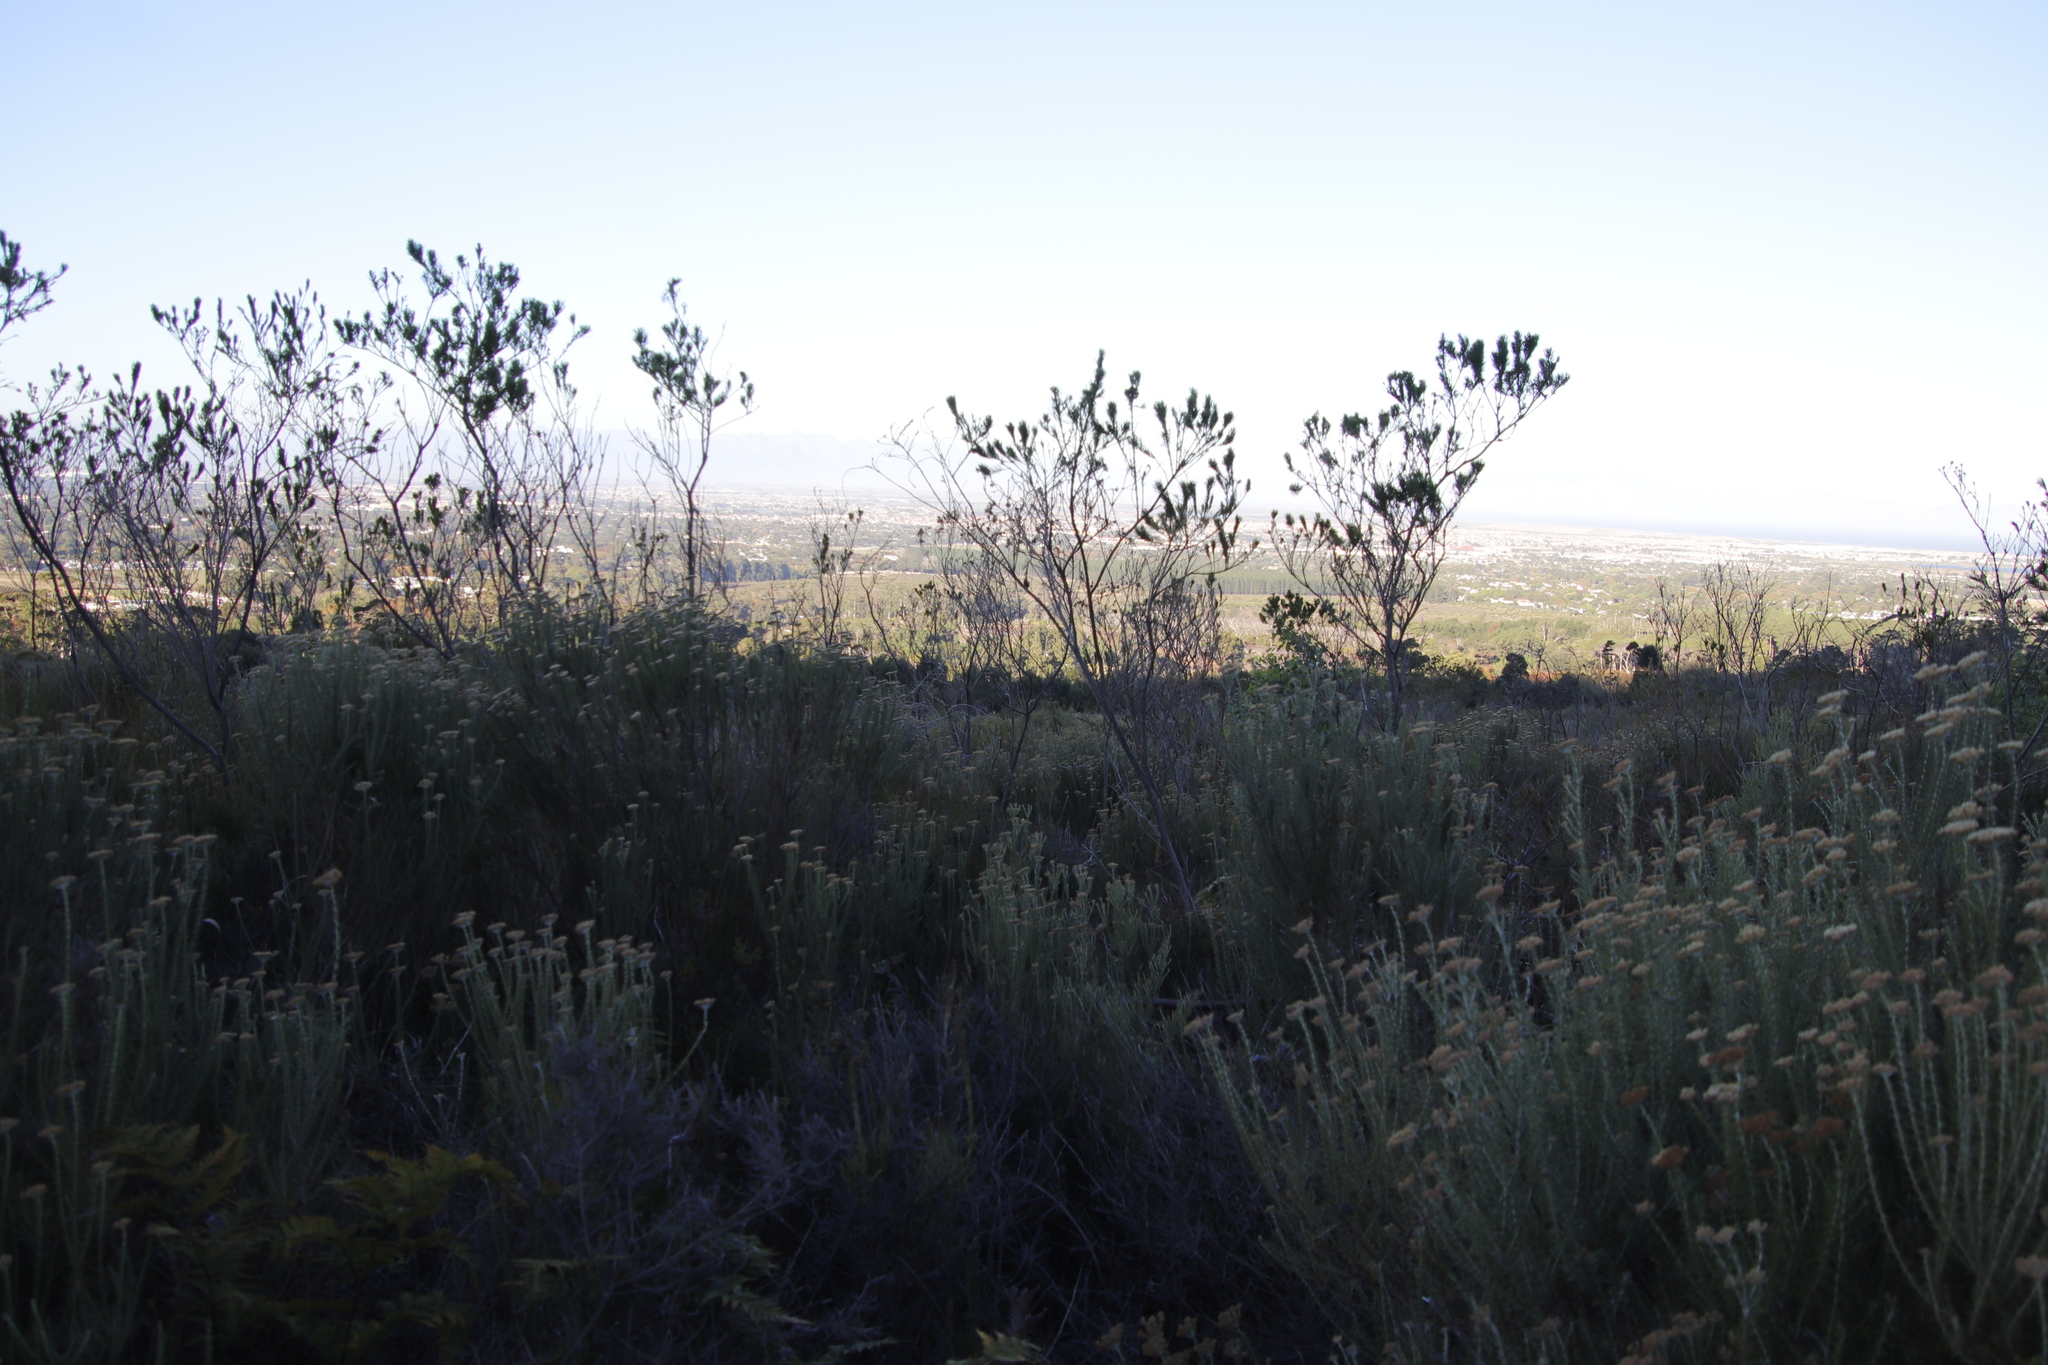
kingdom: Plantae
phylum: Tracheophyta
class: Magnoliopsida
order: Fabales
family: Fabaceae
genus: Psoralea
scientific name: Psoralea pinnata
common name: African scurfpea
